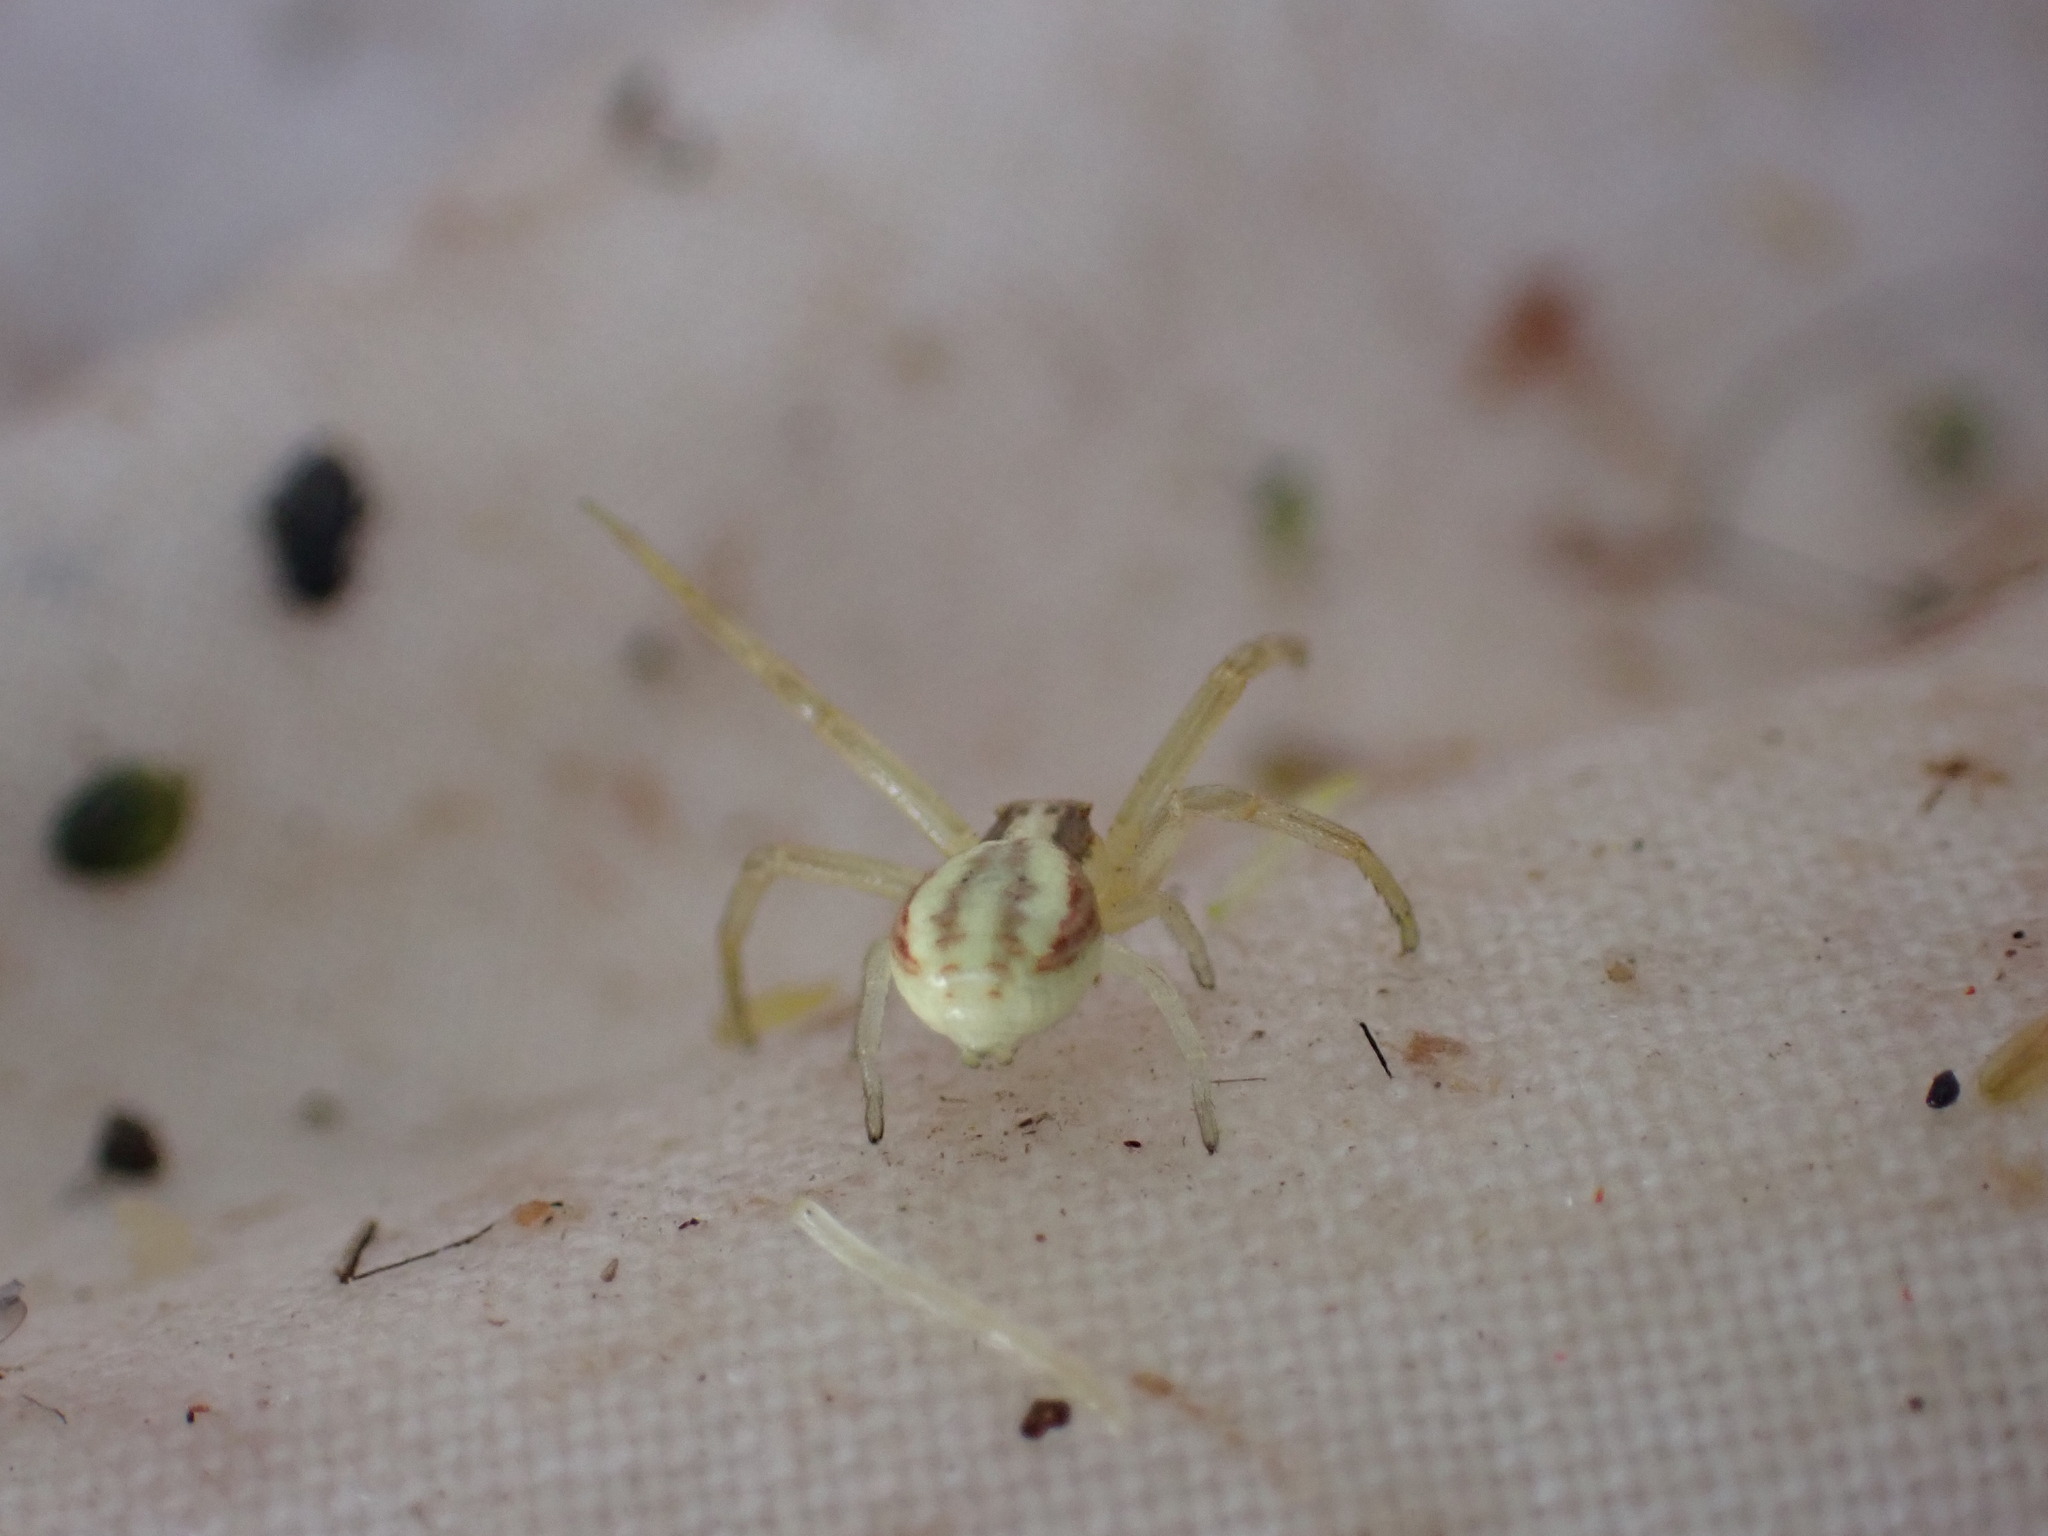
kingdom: Animalia
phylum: Arthropoda
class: Arachnida
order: Araneae
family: Thomisidae
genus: Runcinia
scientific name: Runcinia grammica
